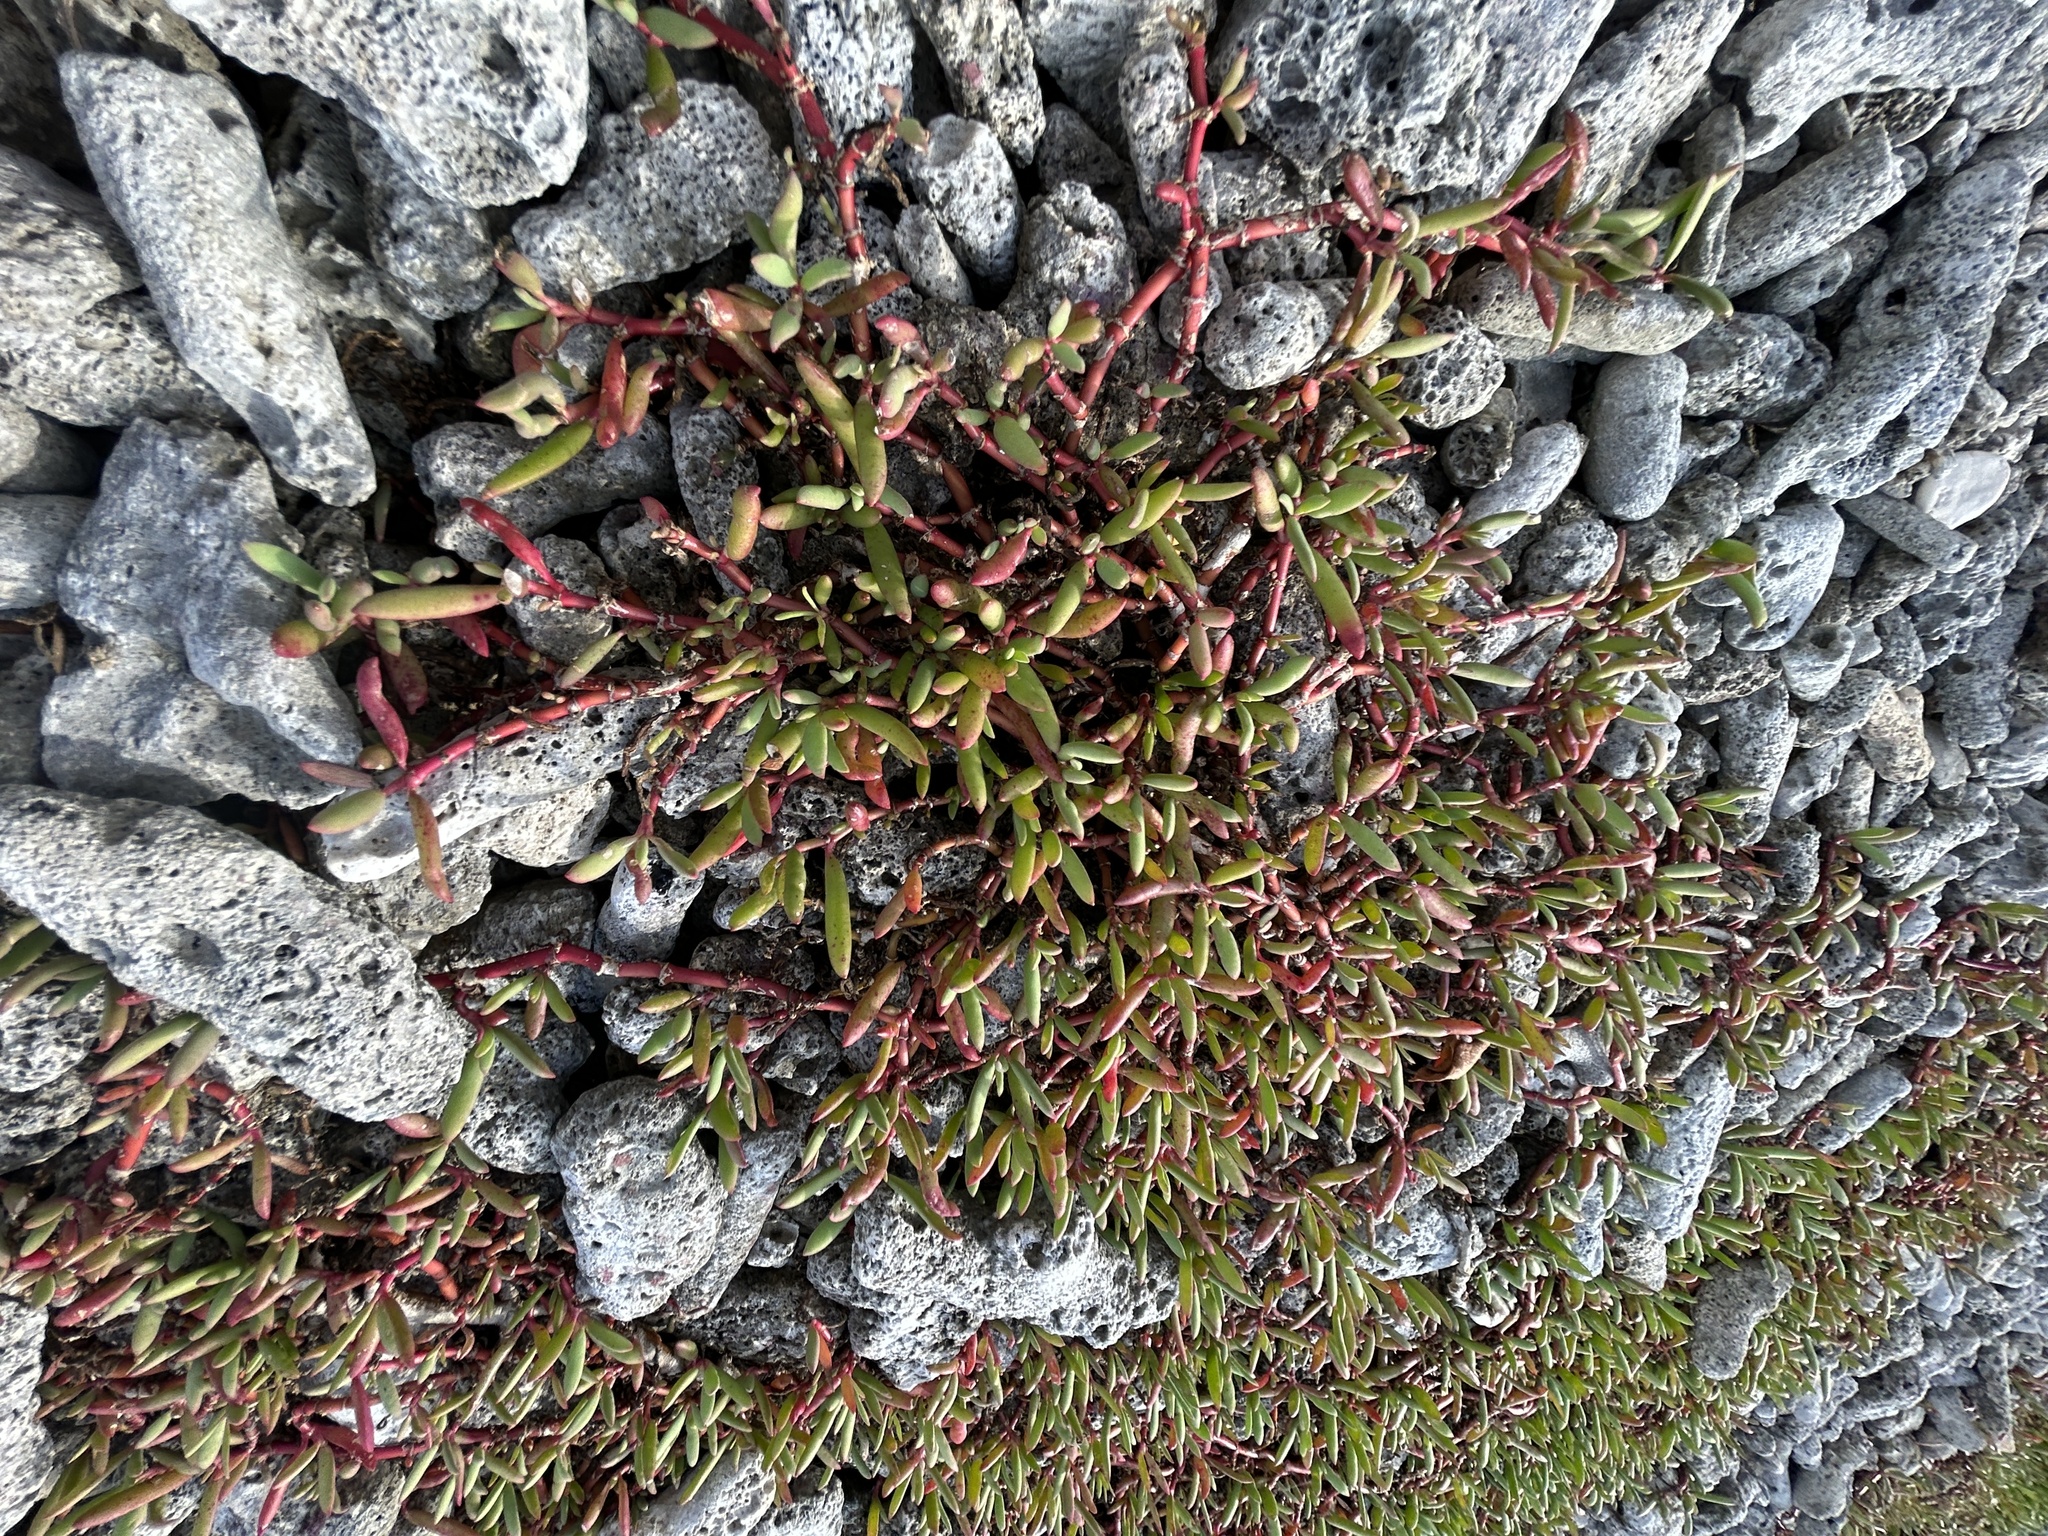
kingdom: Plantae
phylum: Tracheophyta
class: Magnoliopsida
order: Caryophyllales
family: Aizoaceae
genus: Sesuvium
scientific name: Sesuvium portulacastrum
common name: Sea-purslane
